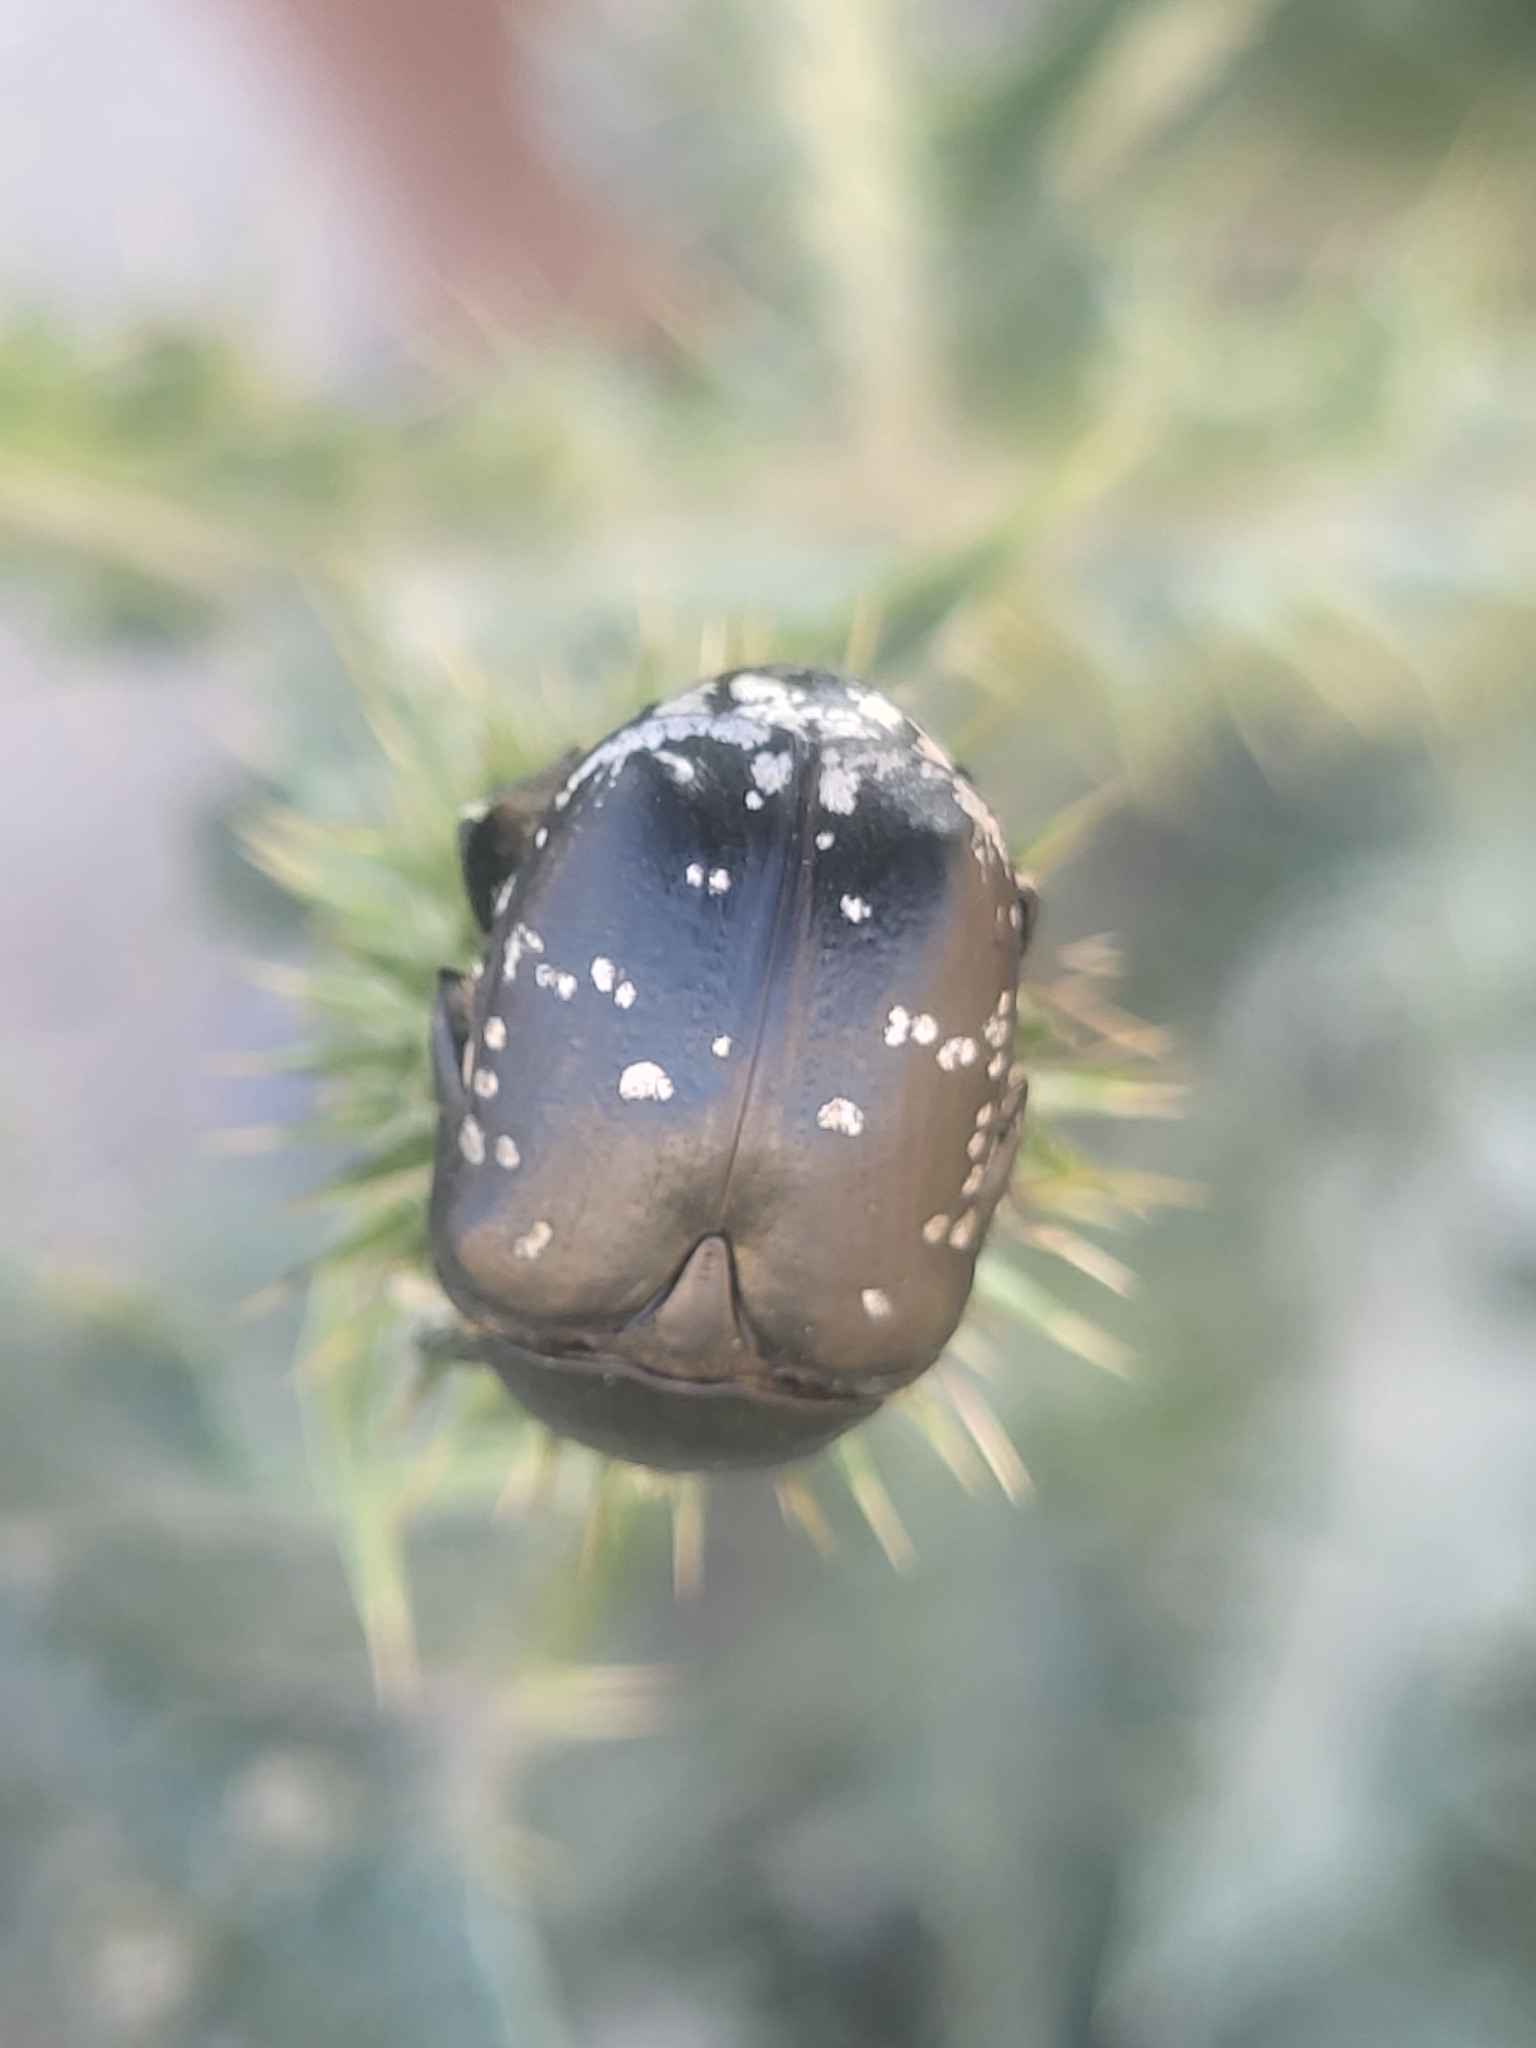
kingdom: Animalia
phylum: Arthropoda
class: Insecta
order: Coleoptera
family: Scarabaeidae
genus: Protaetia
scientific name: Protaetia funebris
